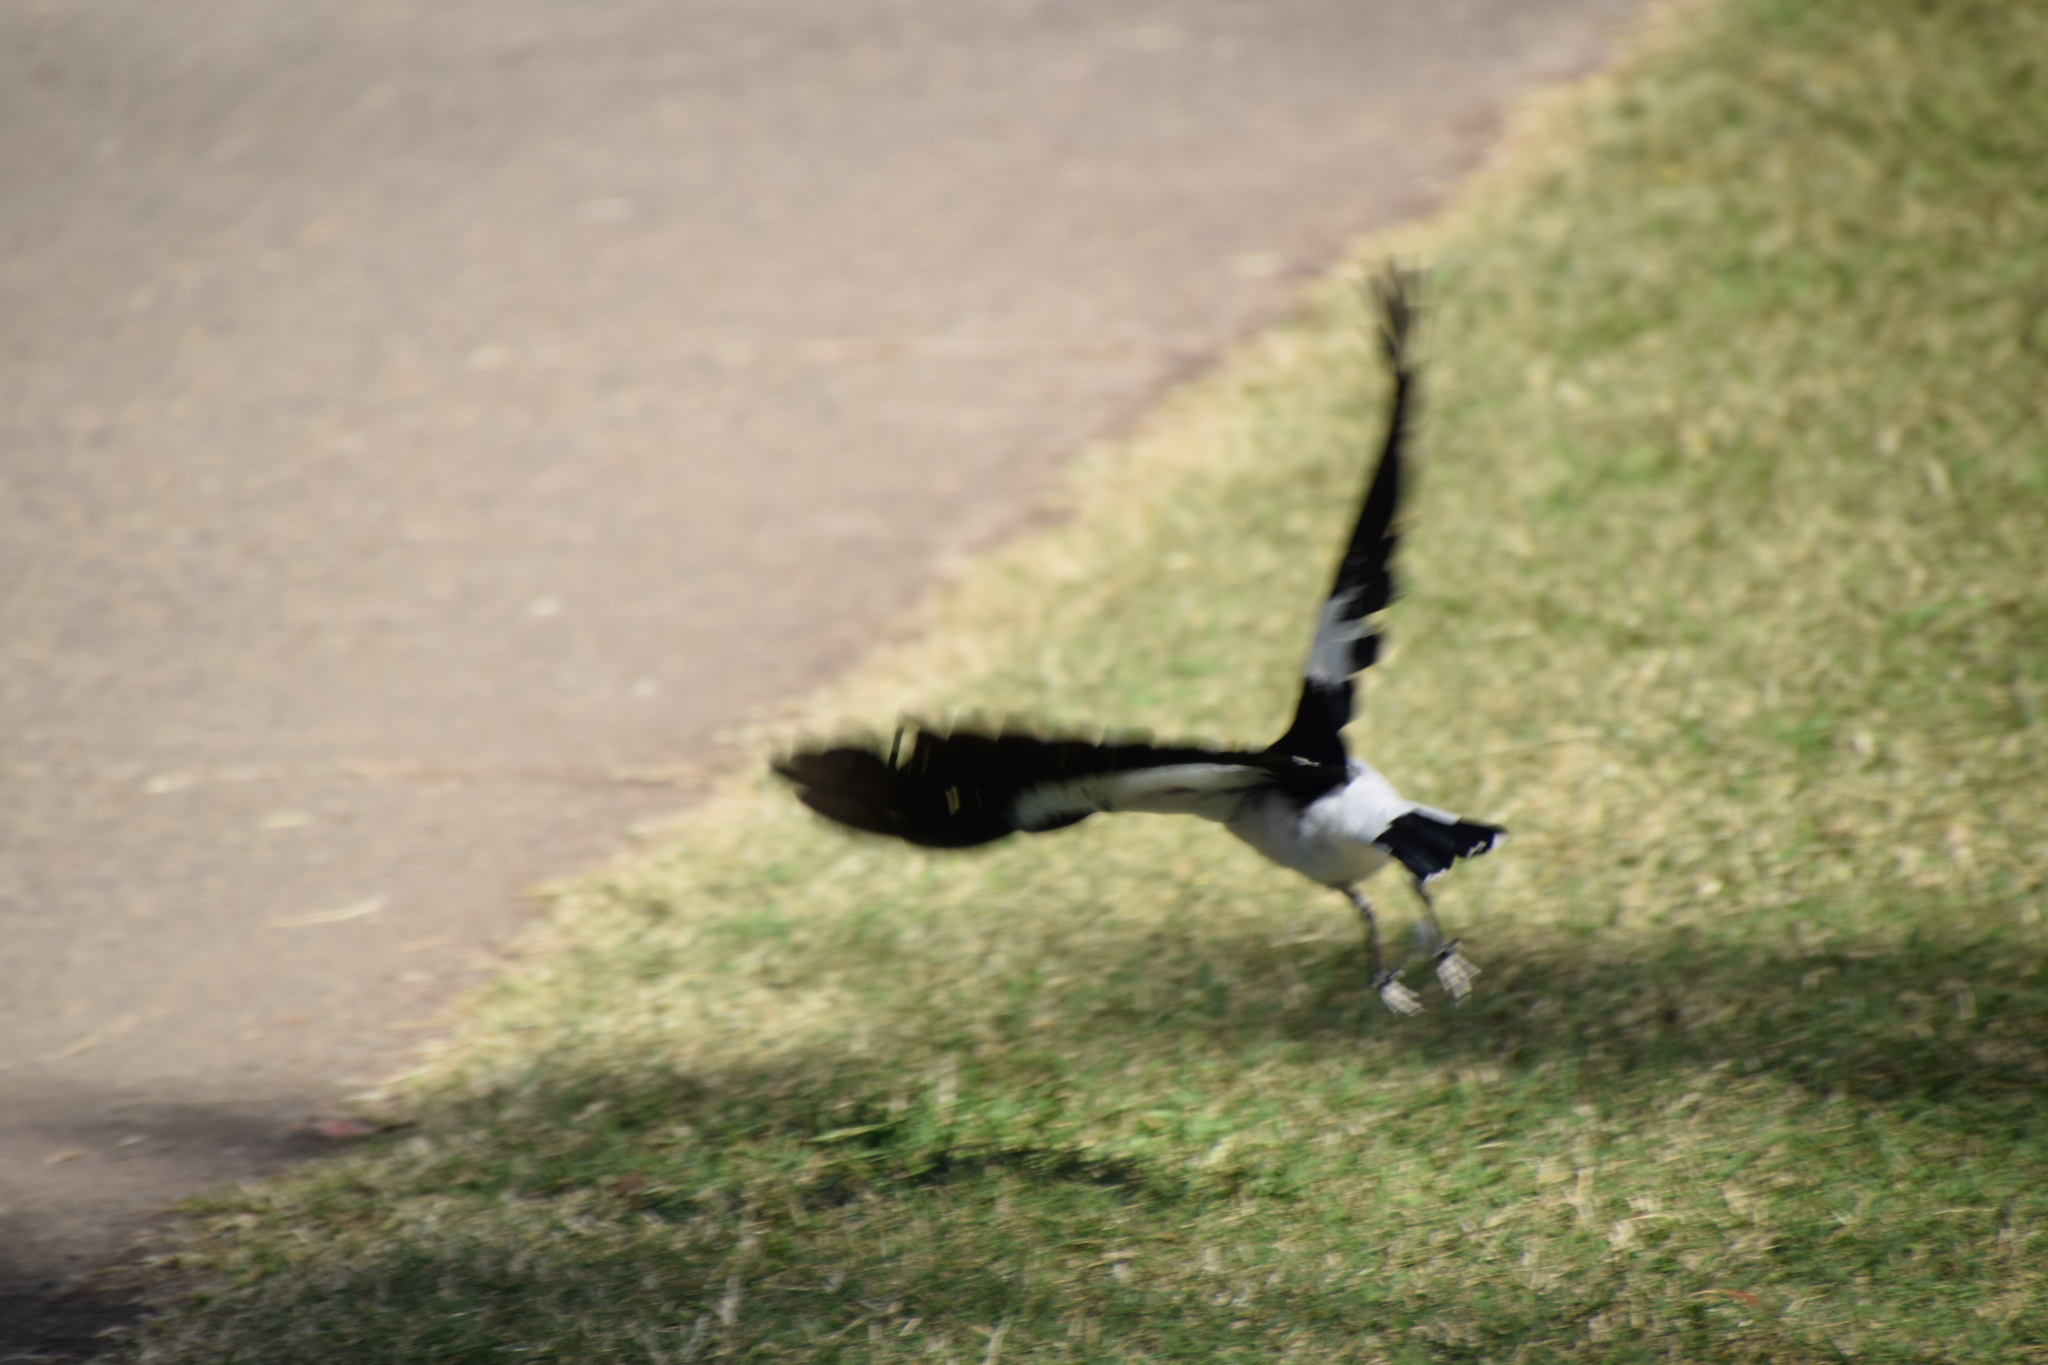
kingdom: Animalia
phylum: Chordata
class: Aves
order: Passeriformes
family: Monarchidae
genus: Grallina
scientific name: Grallina cyanoleuca
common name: Magpie-lark
